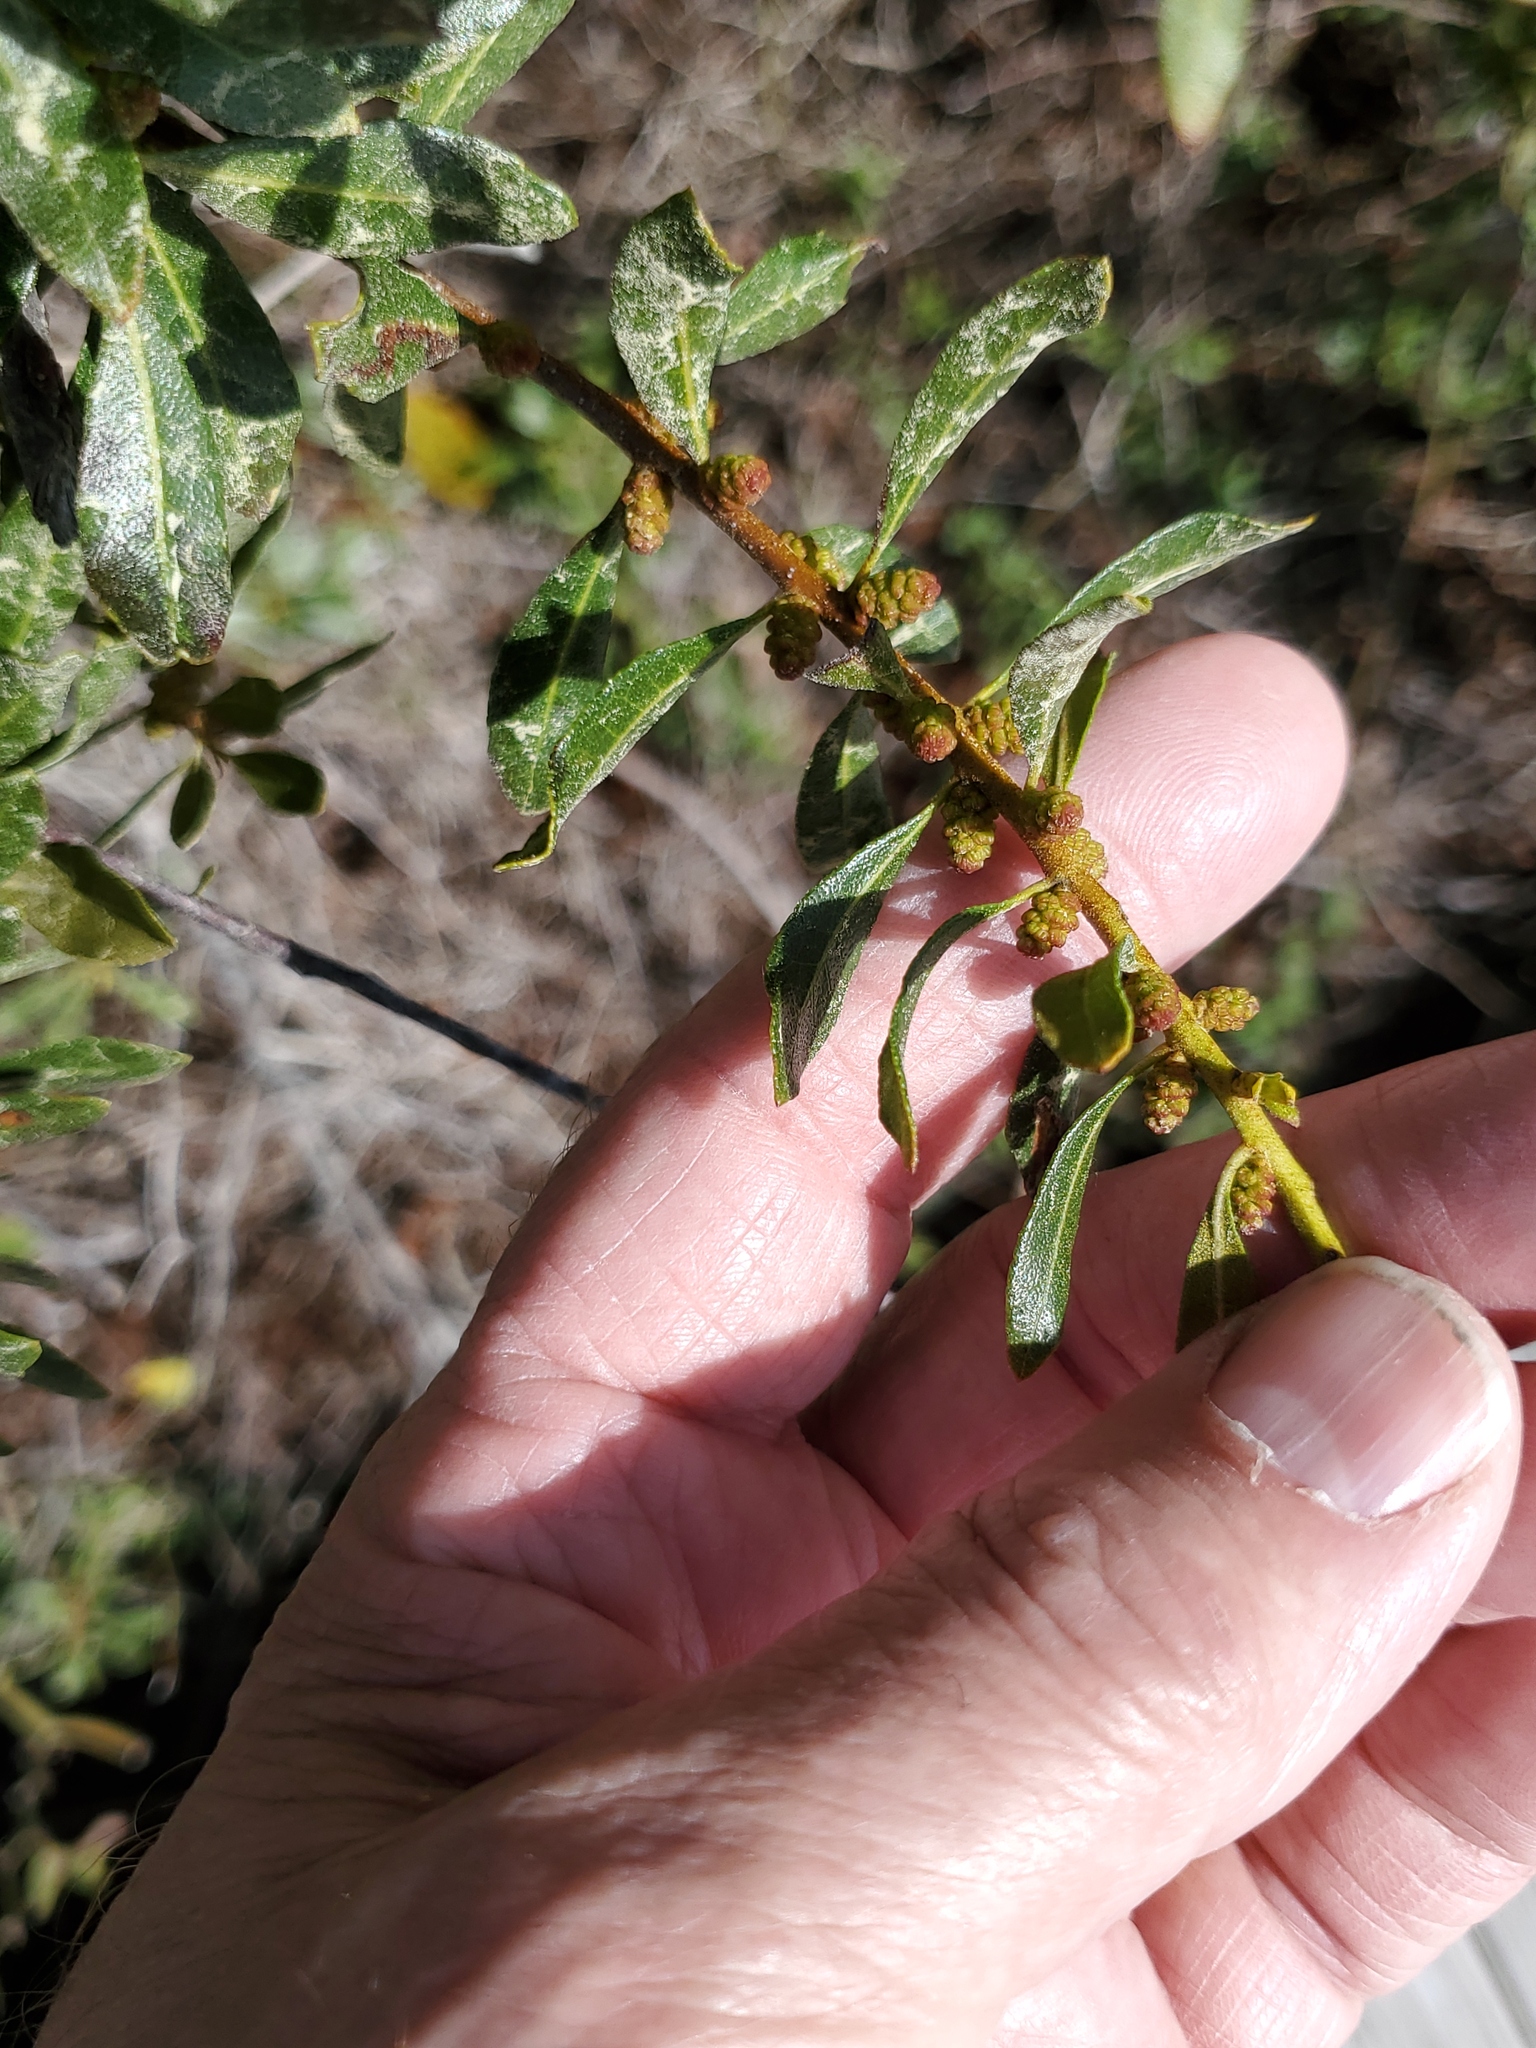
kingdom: Plantae
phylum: Tracheophyta
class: Magnoliopsida
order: Fagales
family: Myricaceae
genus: Morella
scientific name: Morella cerifera
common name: Wax myrtle
